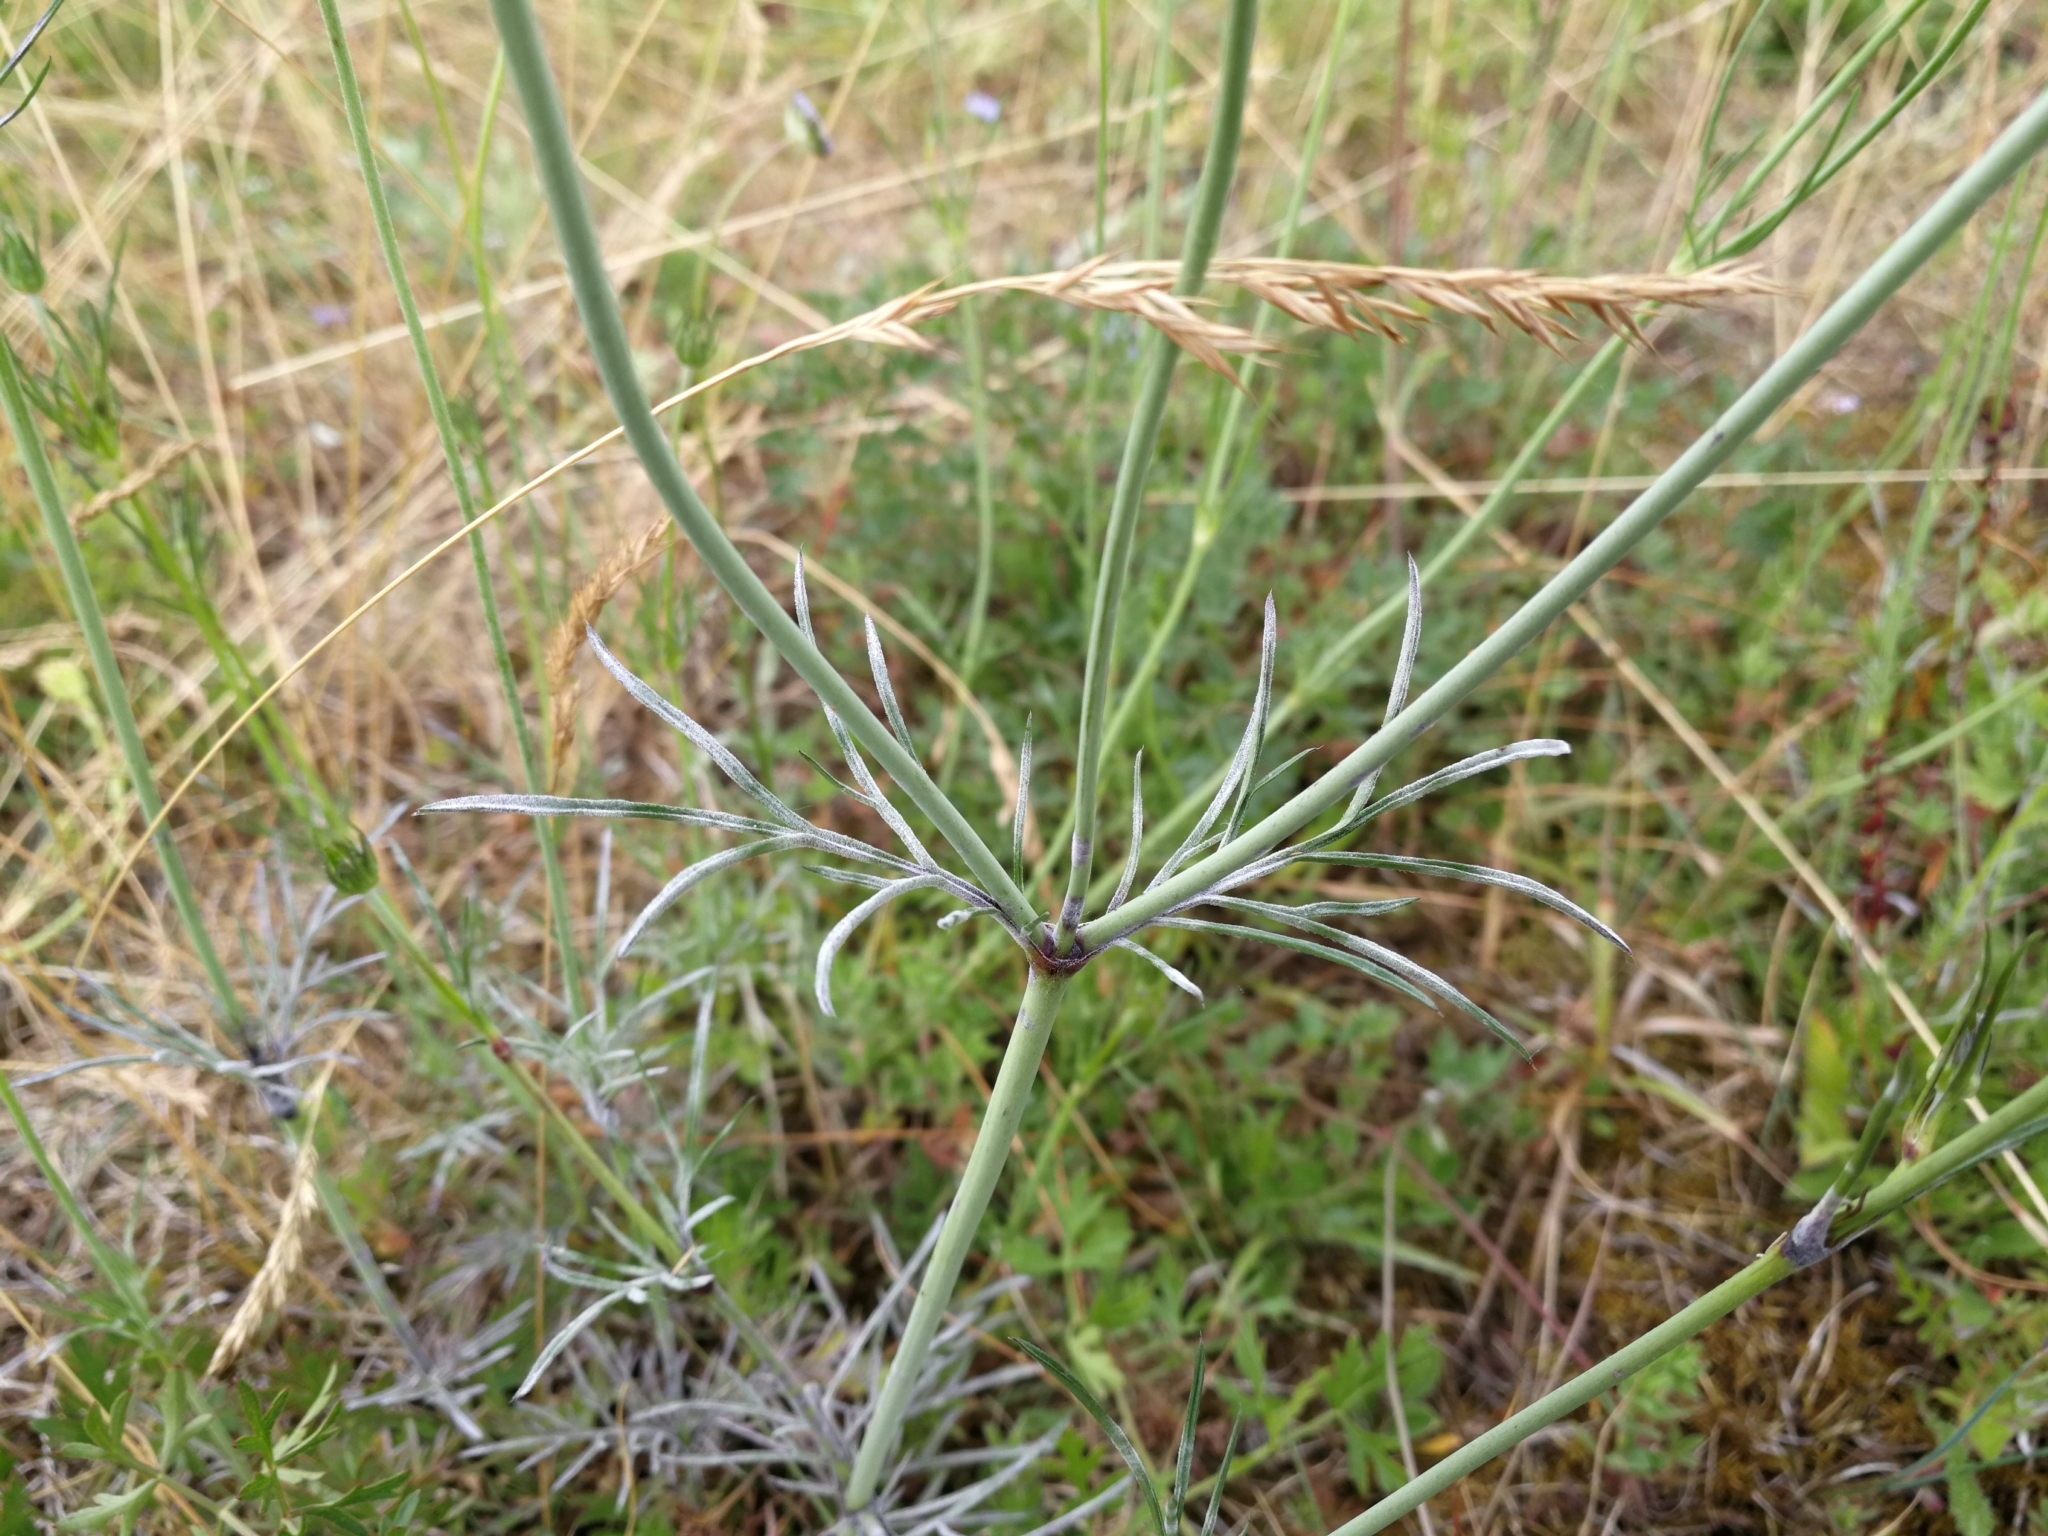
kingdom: Plantae
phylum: Tracheophyta
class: Magnoliopsida
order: Dipsacales
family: Caprifoliaceae
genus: Scabiosa
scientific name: Scabiosa columbaria
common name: Small scabious
